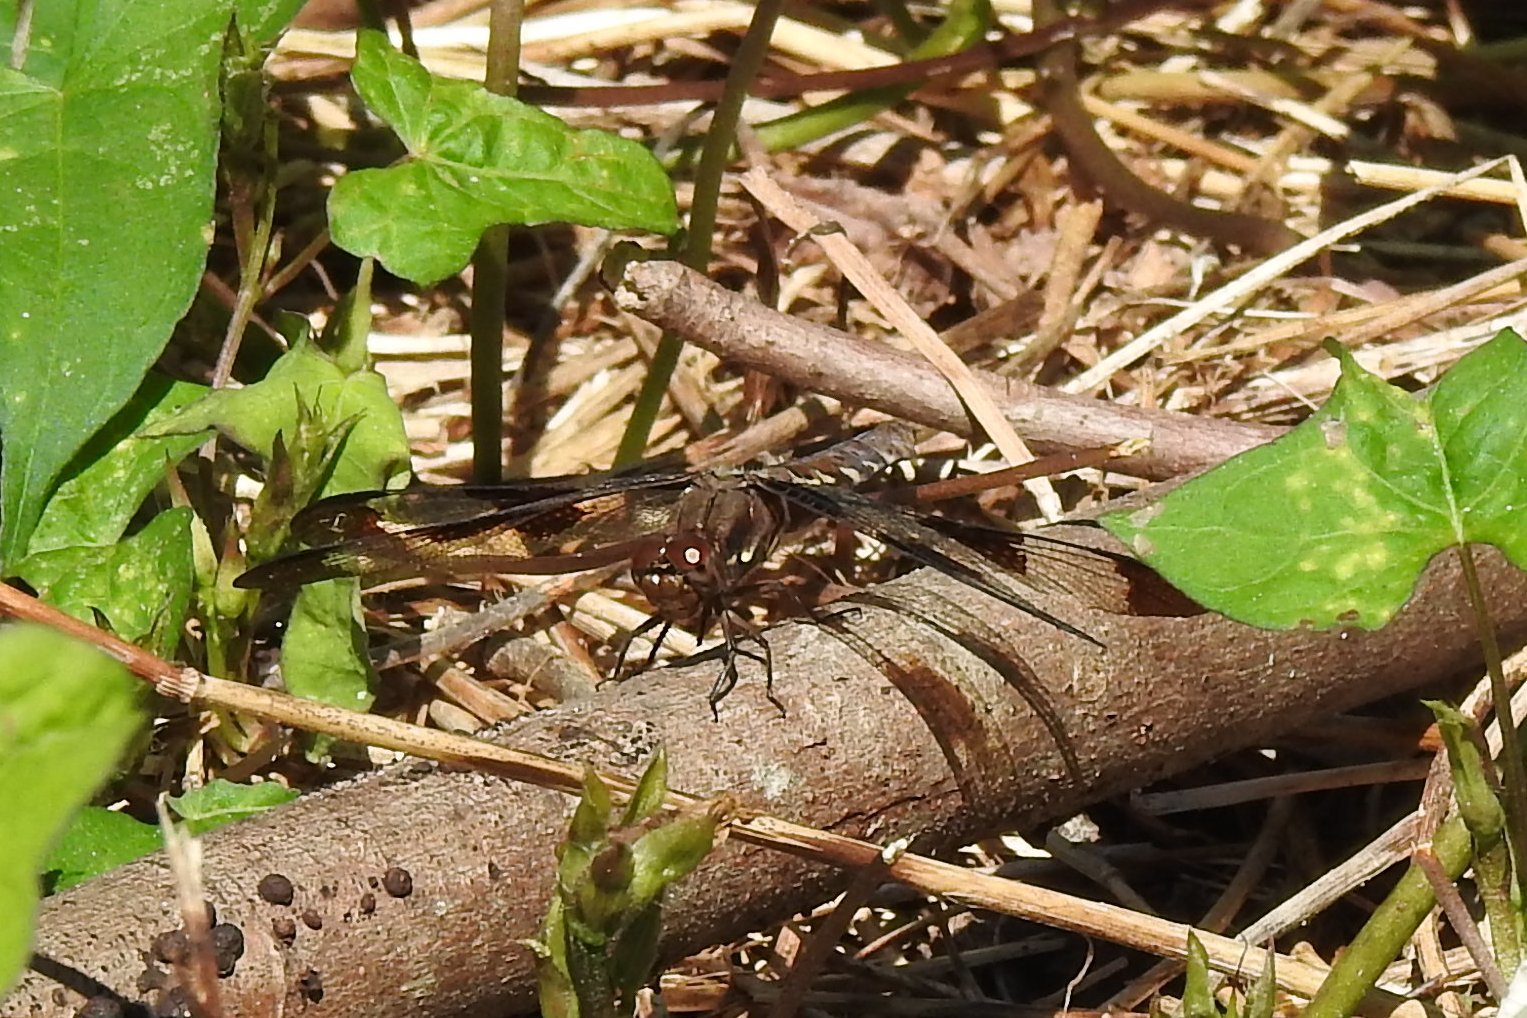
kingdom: Animalia
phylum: Arthropoda
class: Insecta
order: Odonata
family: Libellulidae
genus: Plathemis
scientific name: Plathemis lydia
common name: Common whitetail
